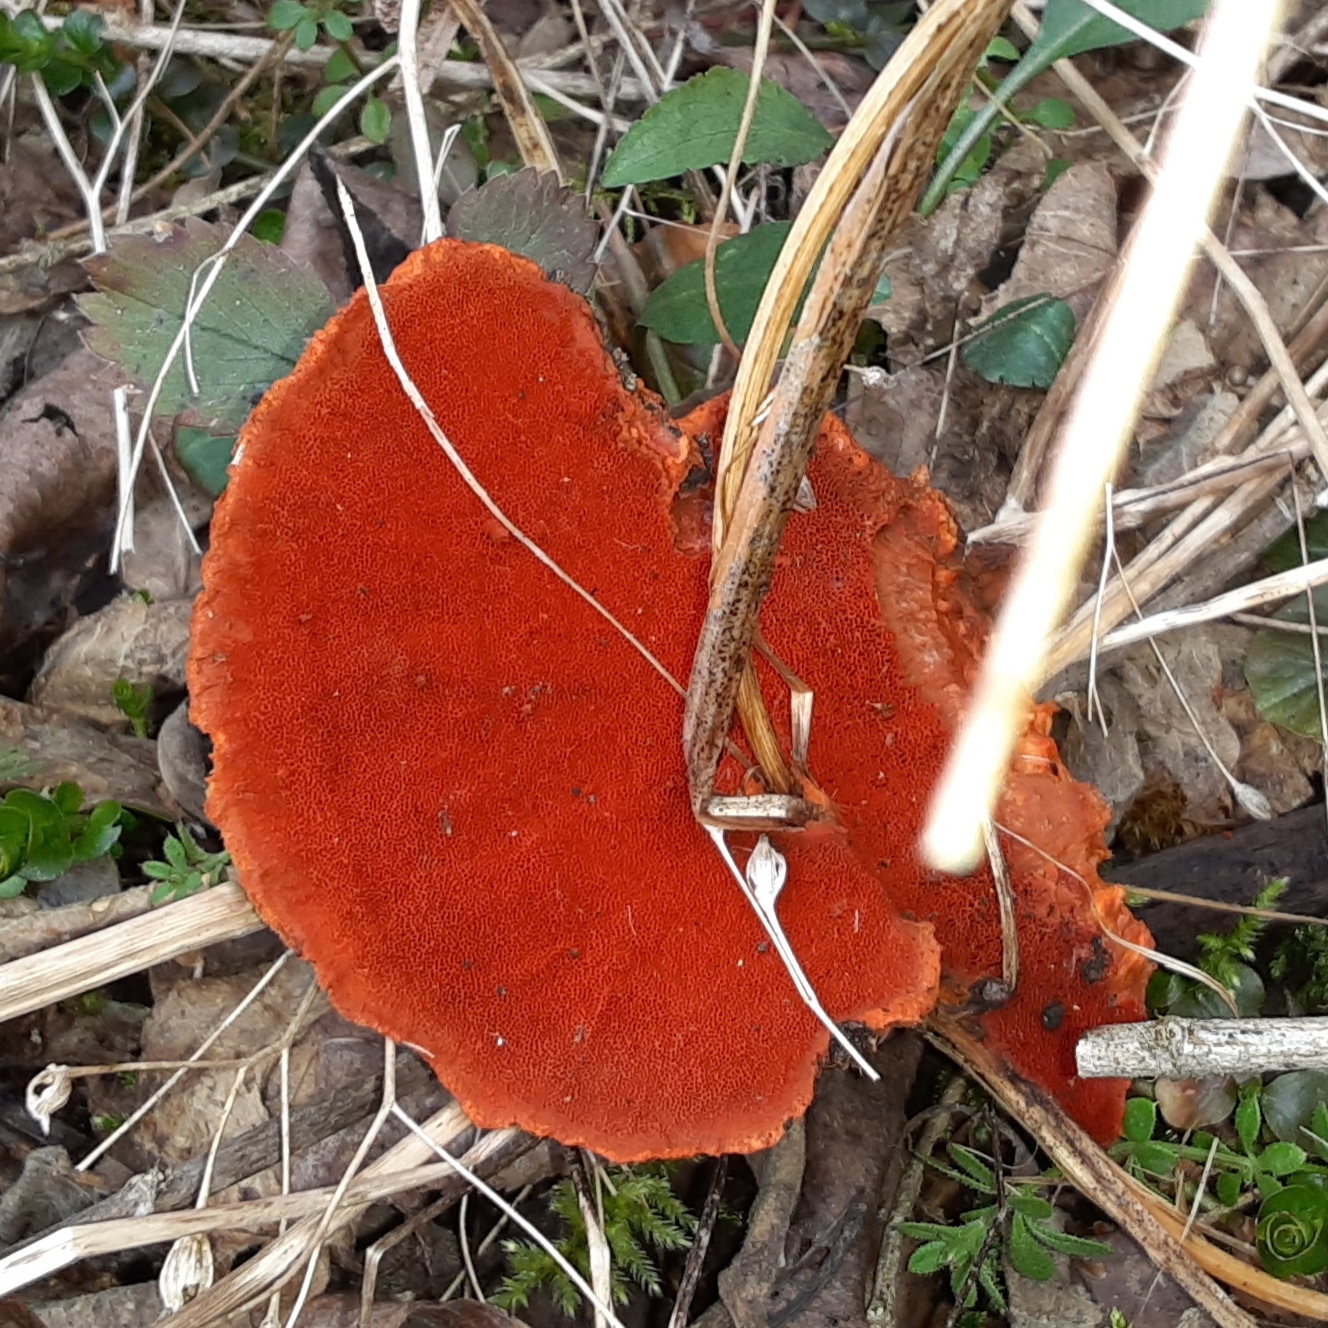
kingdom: Fungi
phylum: Basidiomycota
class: Agaricomycetes
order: Polyporales
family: Polyporaceae
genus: Trametes
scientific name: Trametes cinnabarina
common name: Northern cinnabar polypore
